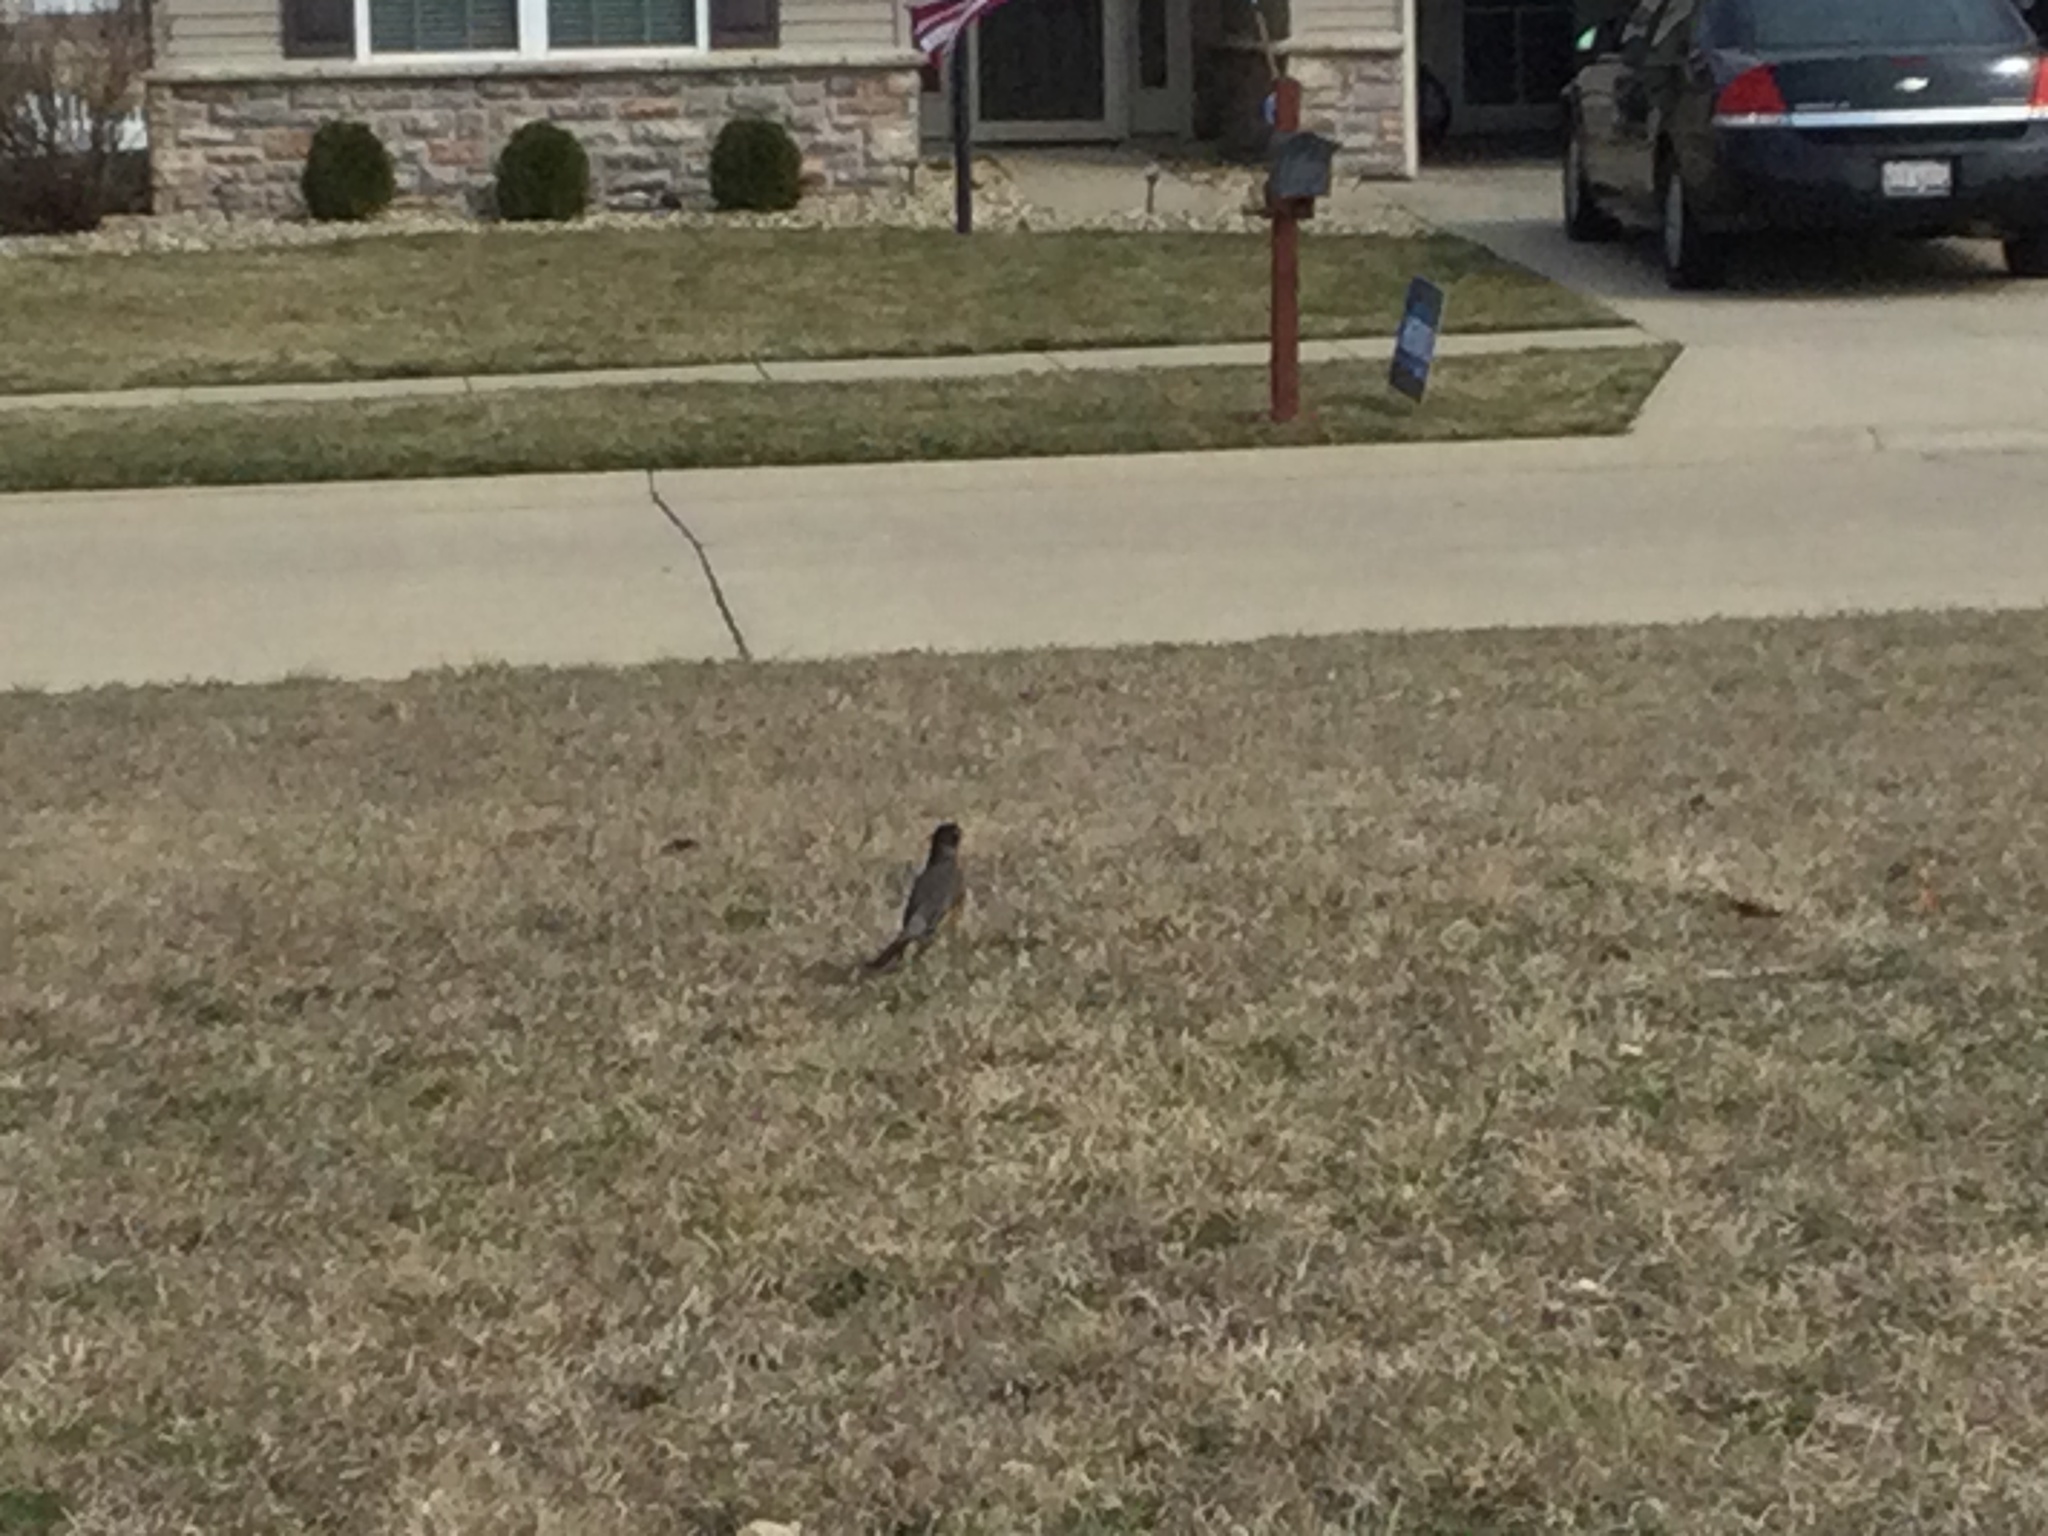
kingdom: Animalia
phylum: Chordata
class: Aves
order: Passeriformes
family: Turdidae
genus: Turdus
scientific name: Turdus migratorius
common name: American robin
